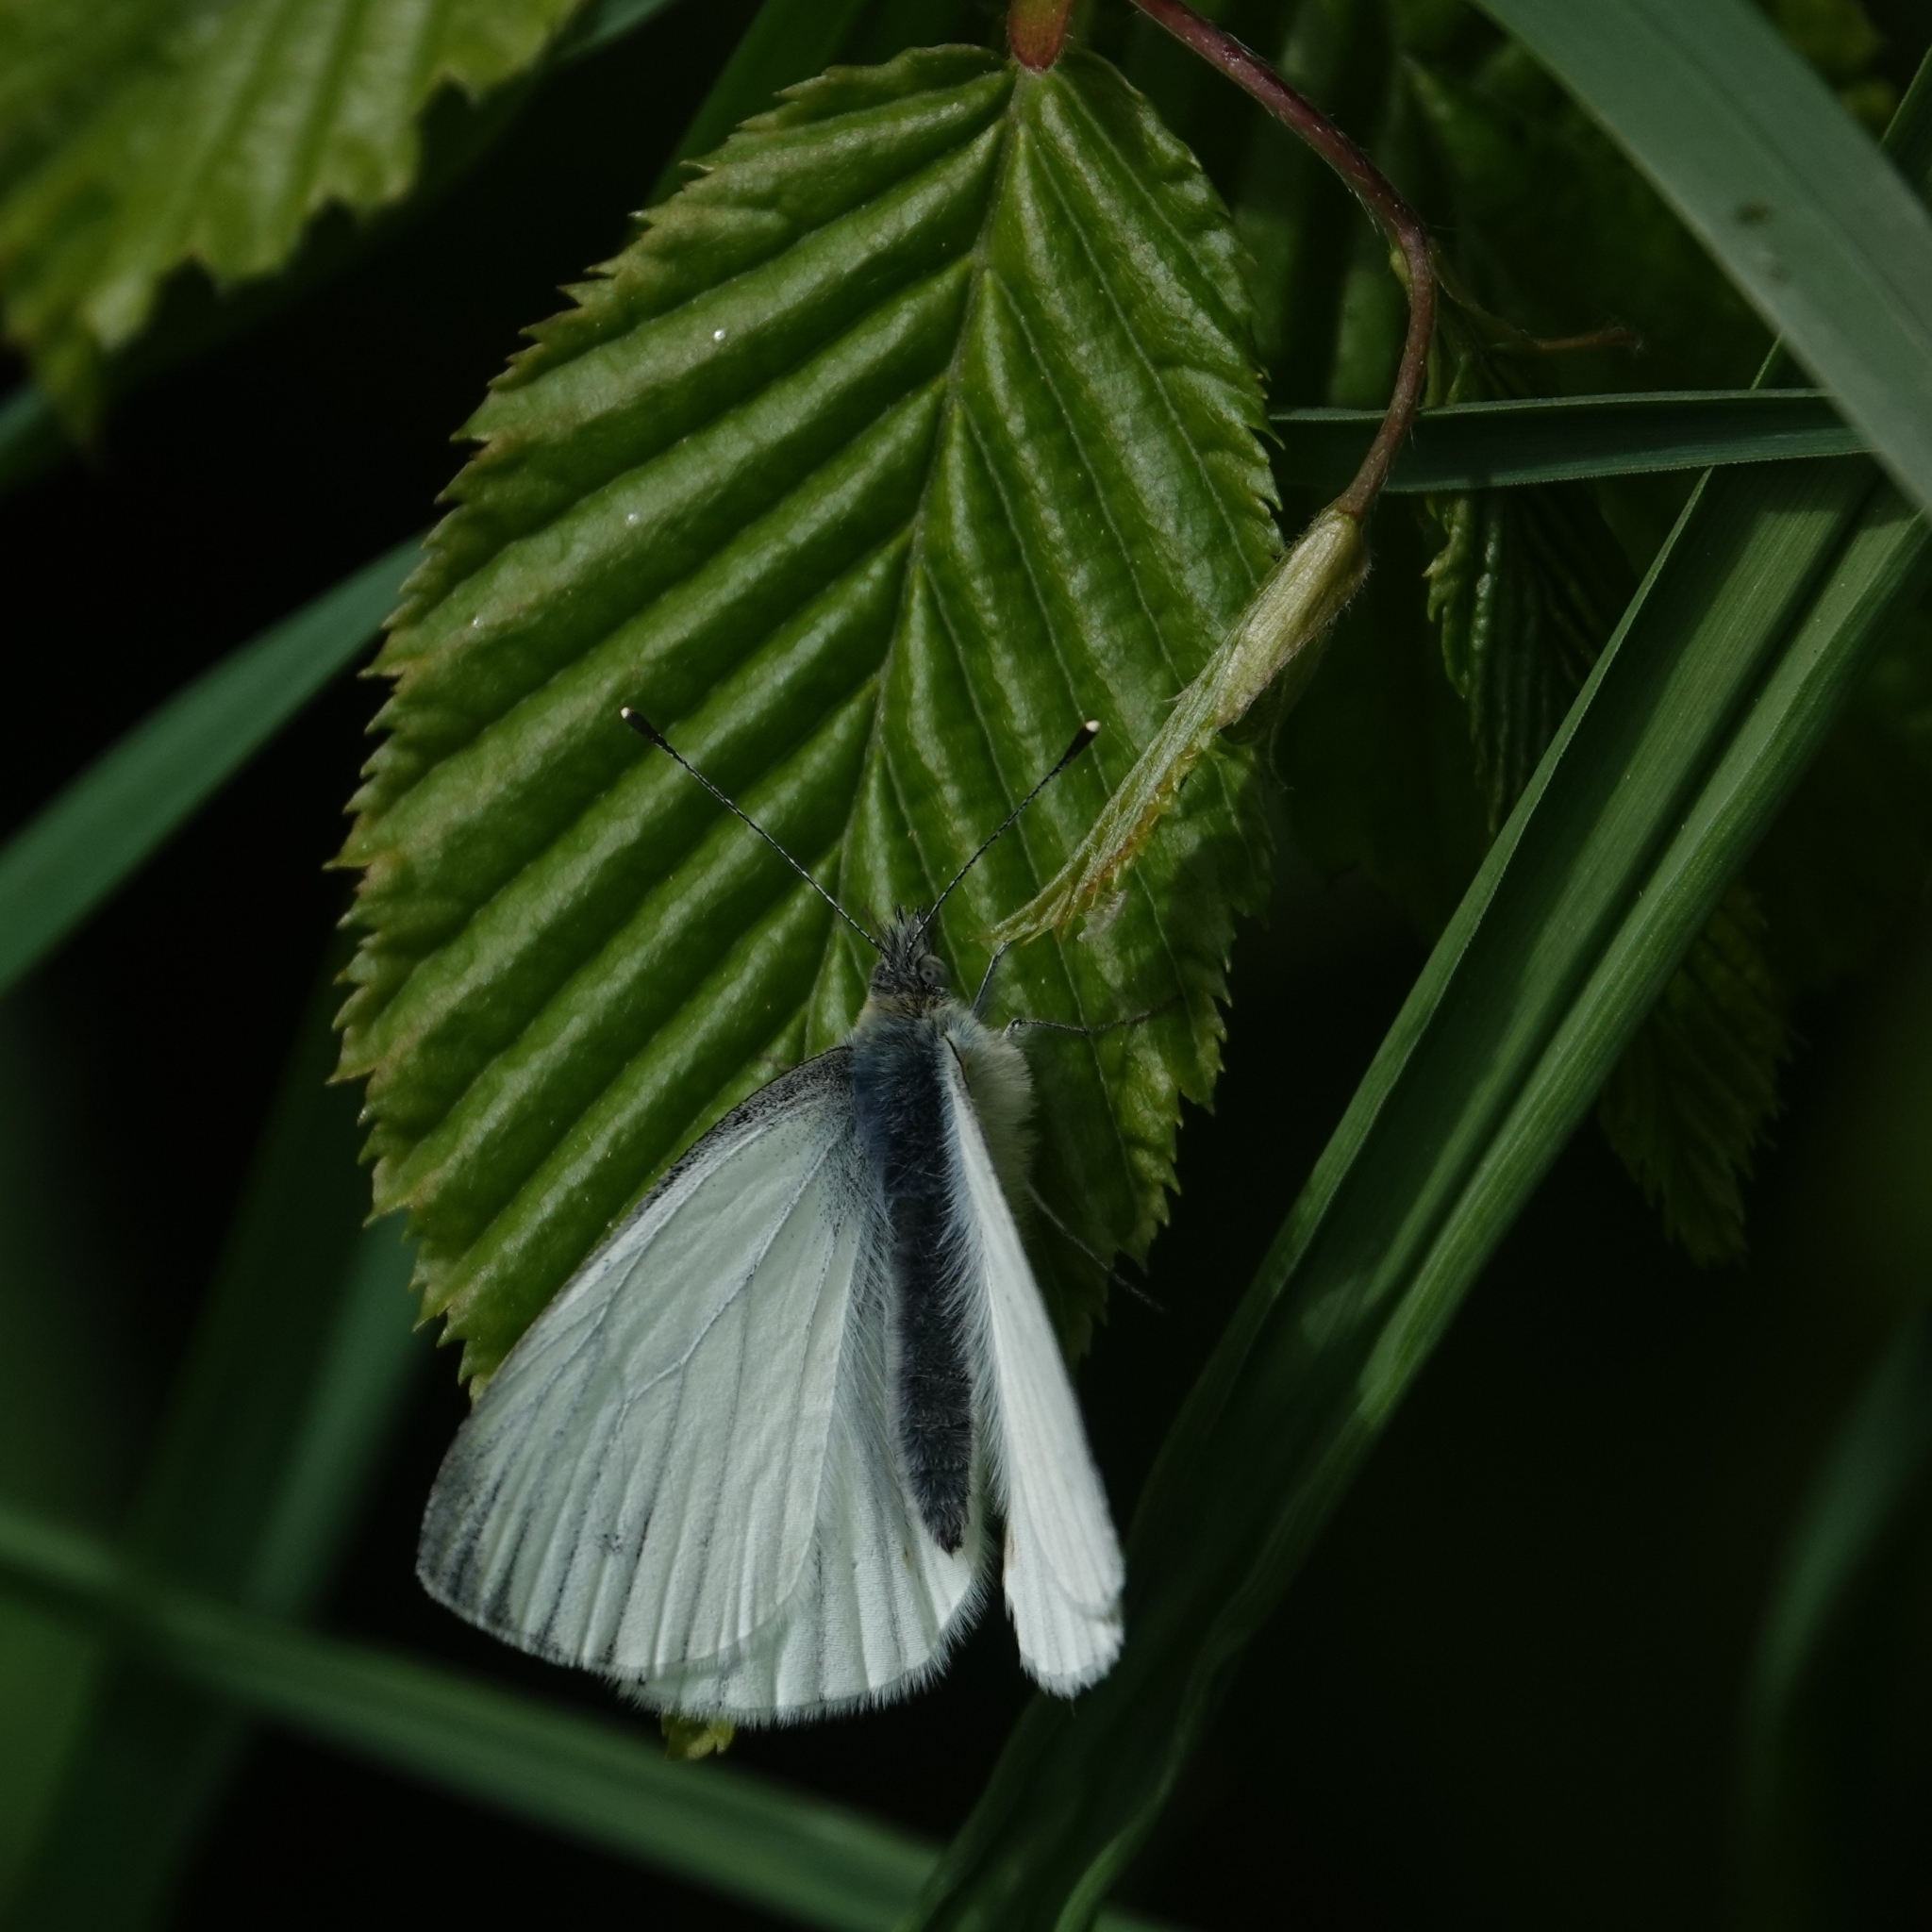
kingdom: Animalia
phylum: Arthropoda
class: Insecta
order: Lepidoptera
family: Pieridae
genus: Pieris
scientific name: Pieris napi
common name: Green-veined white
